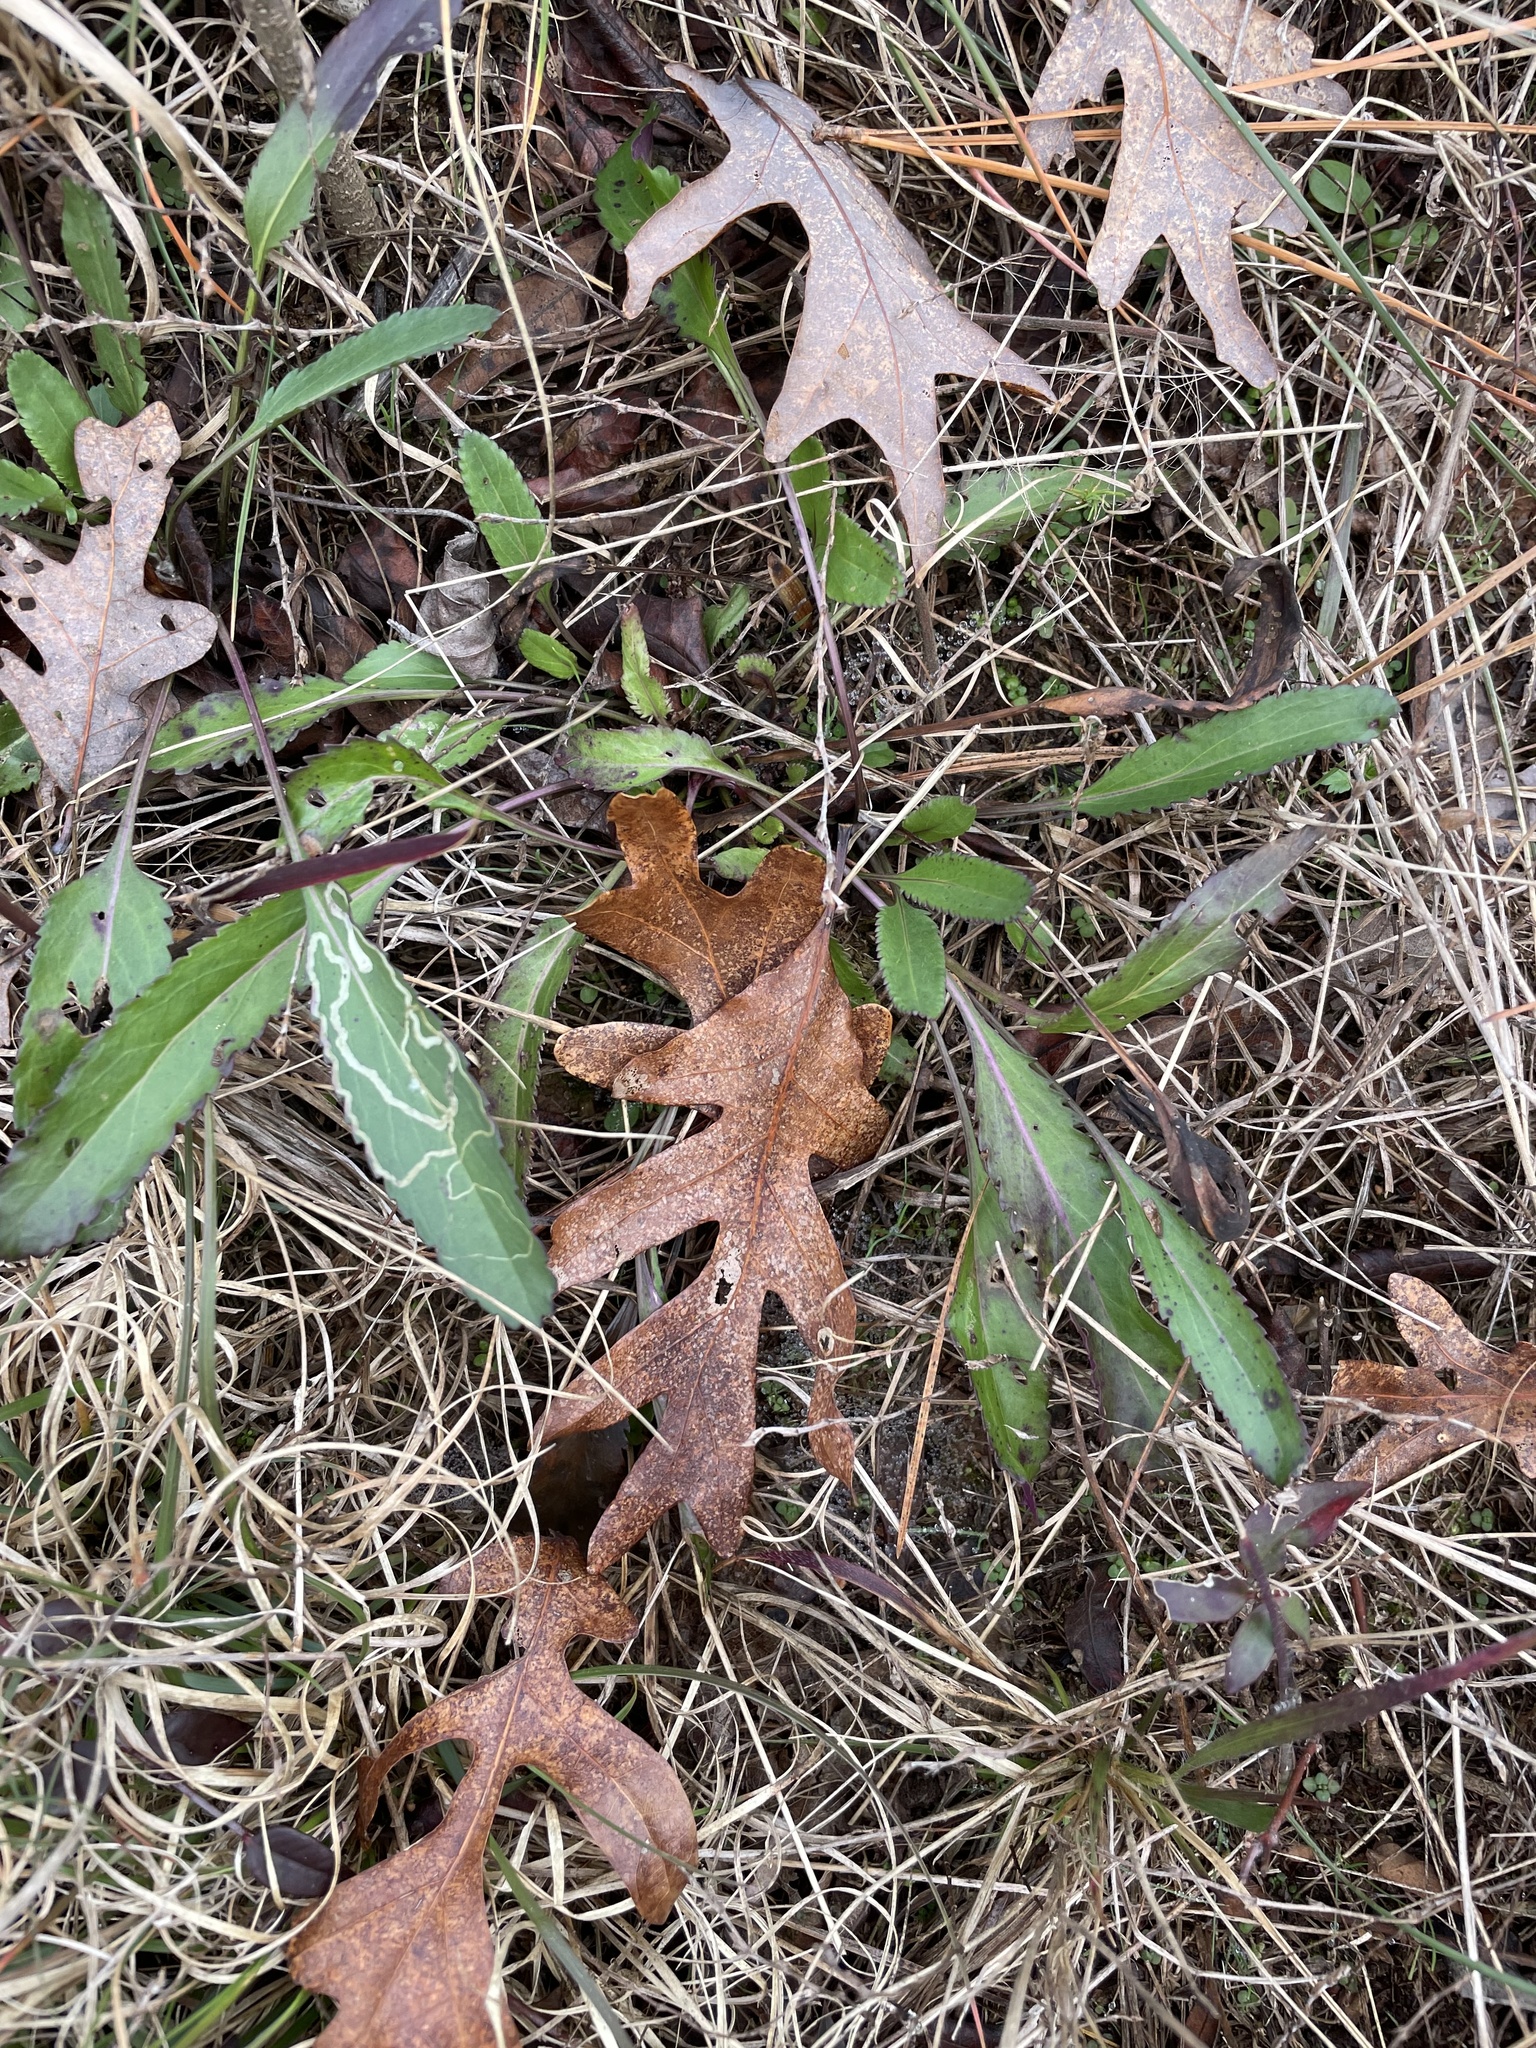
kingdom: Plantae
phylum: Tracheophyta
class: Magnoliopsida
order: Asterales
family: Asteraceae
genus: Packera
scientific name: Packera anonyma
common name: Small ragwort
